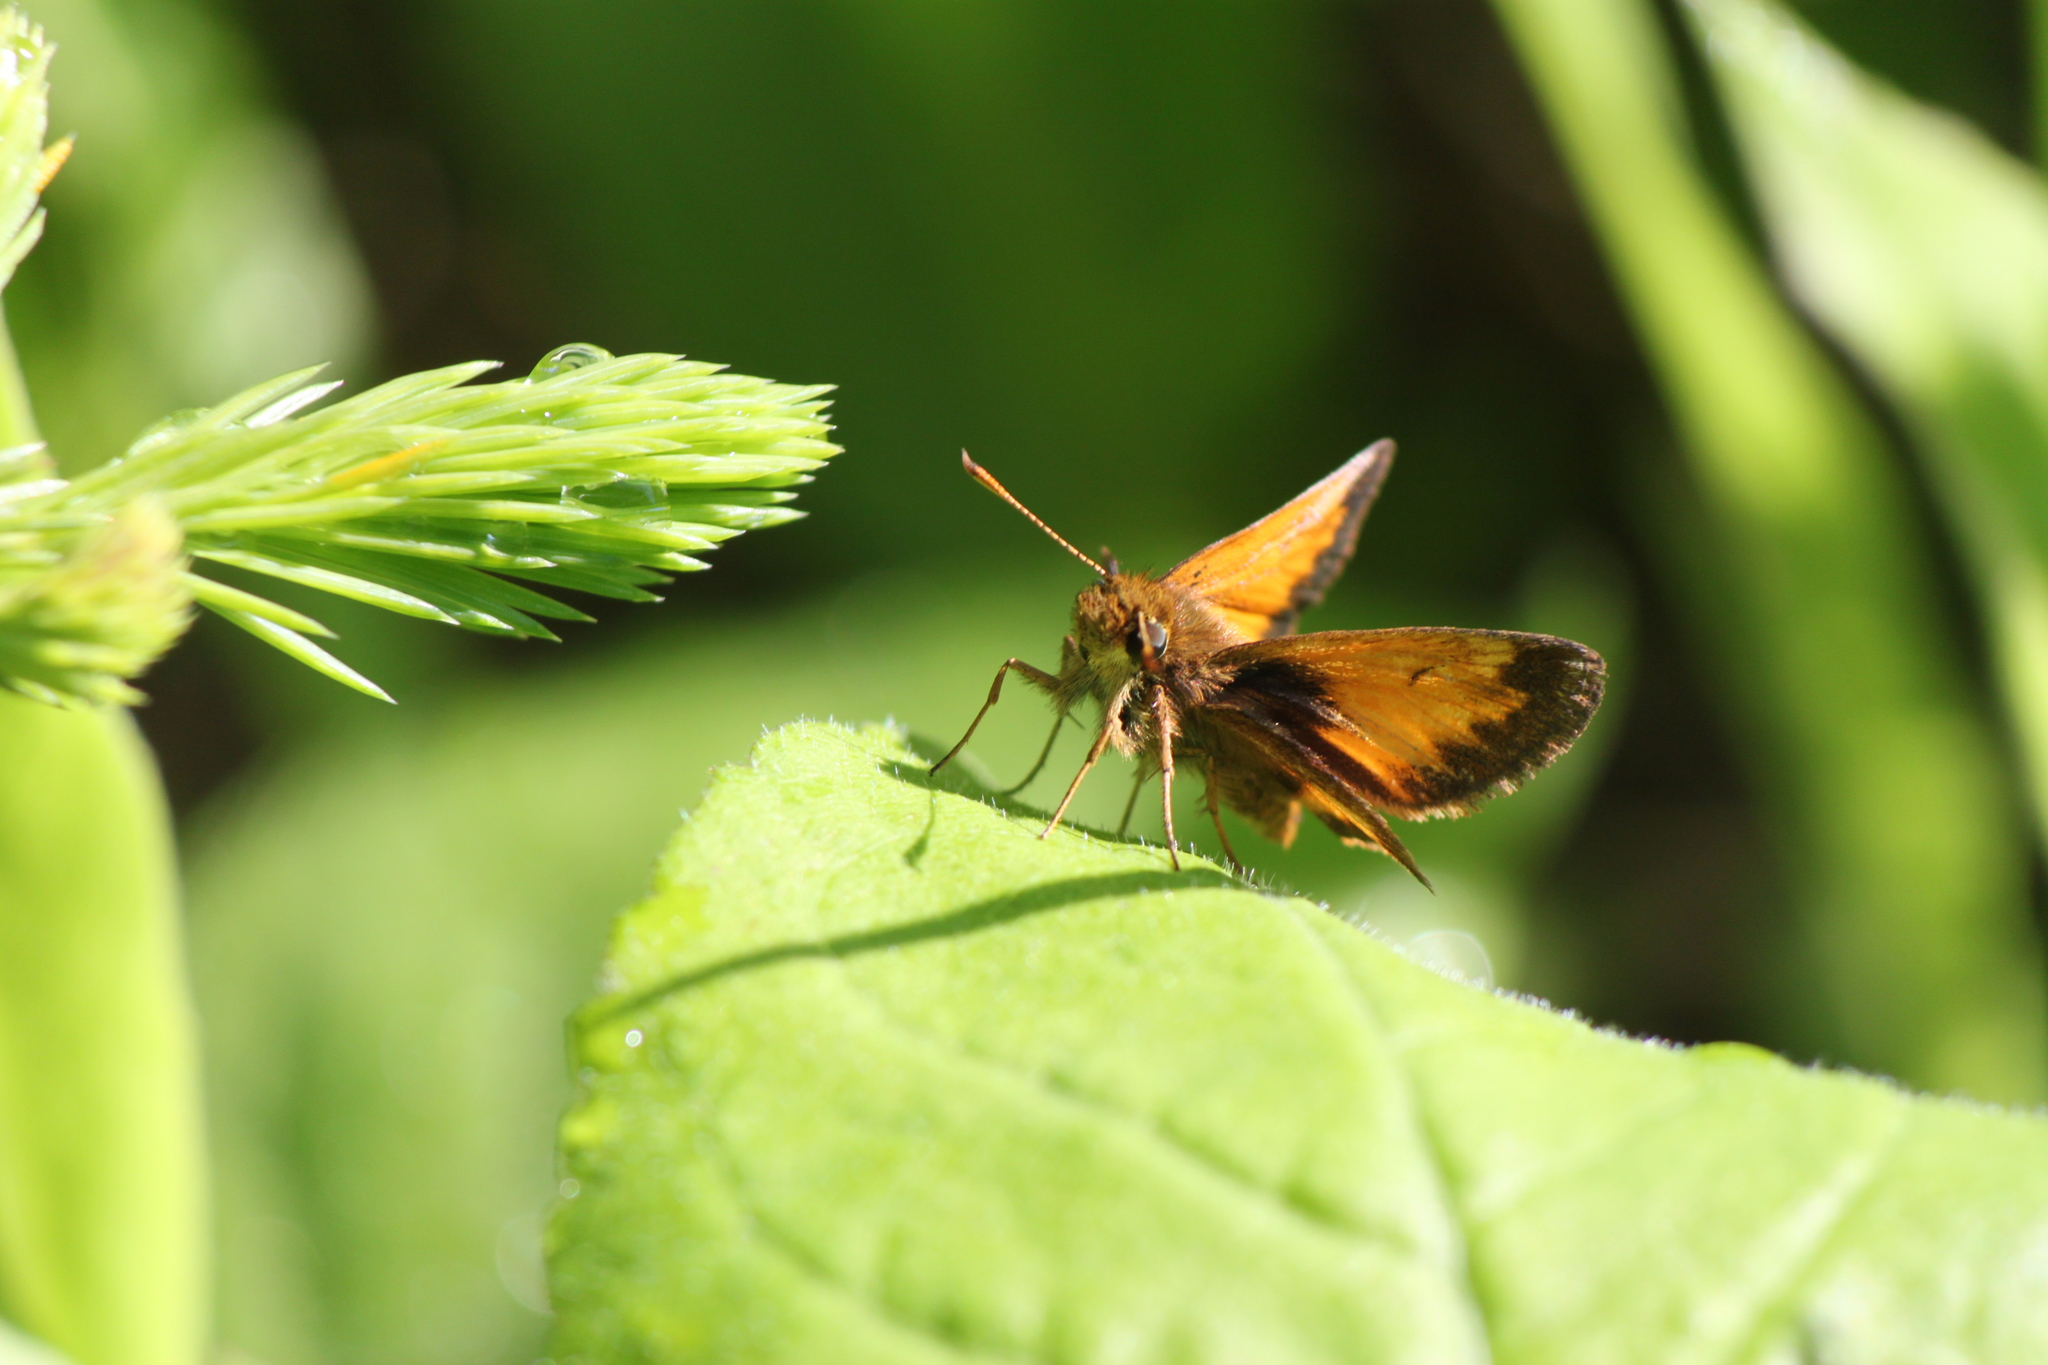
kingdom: Animalia
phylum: Arthropoda
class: Insecta
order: Lepidoptera
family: Hesperiidae
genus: Lon
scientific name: Lon hobomok
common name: Hobomok skipper
